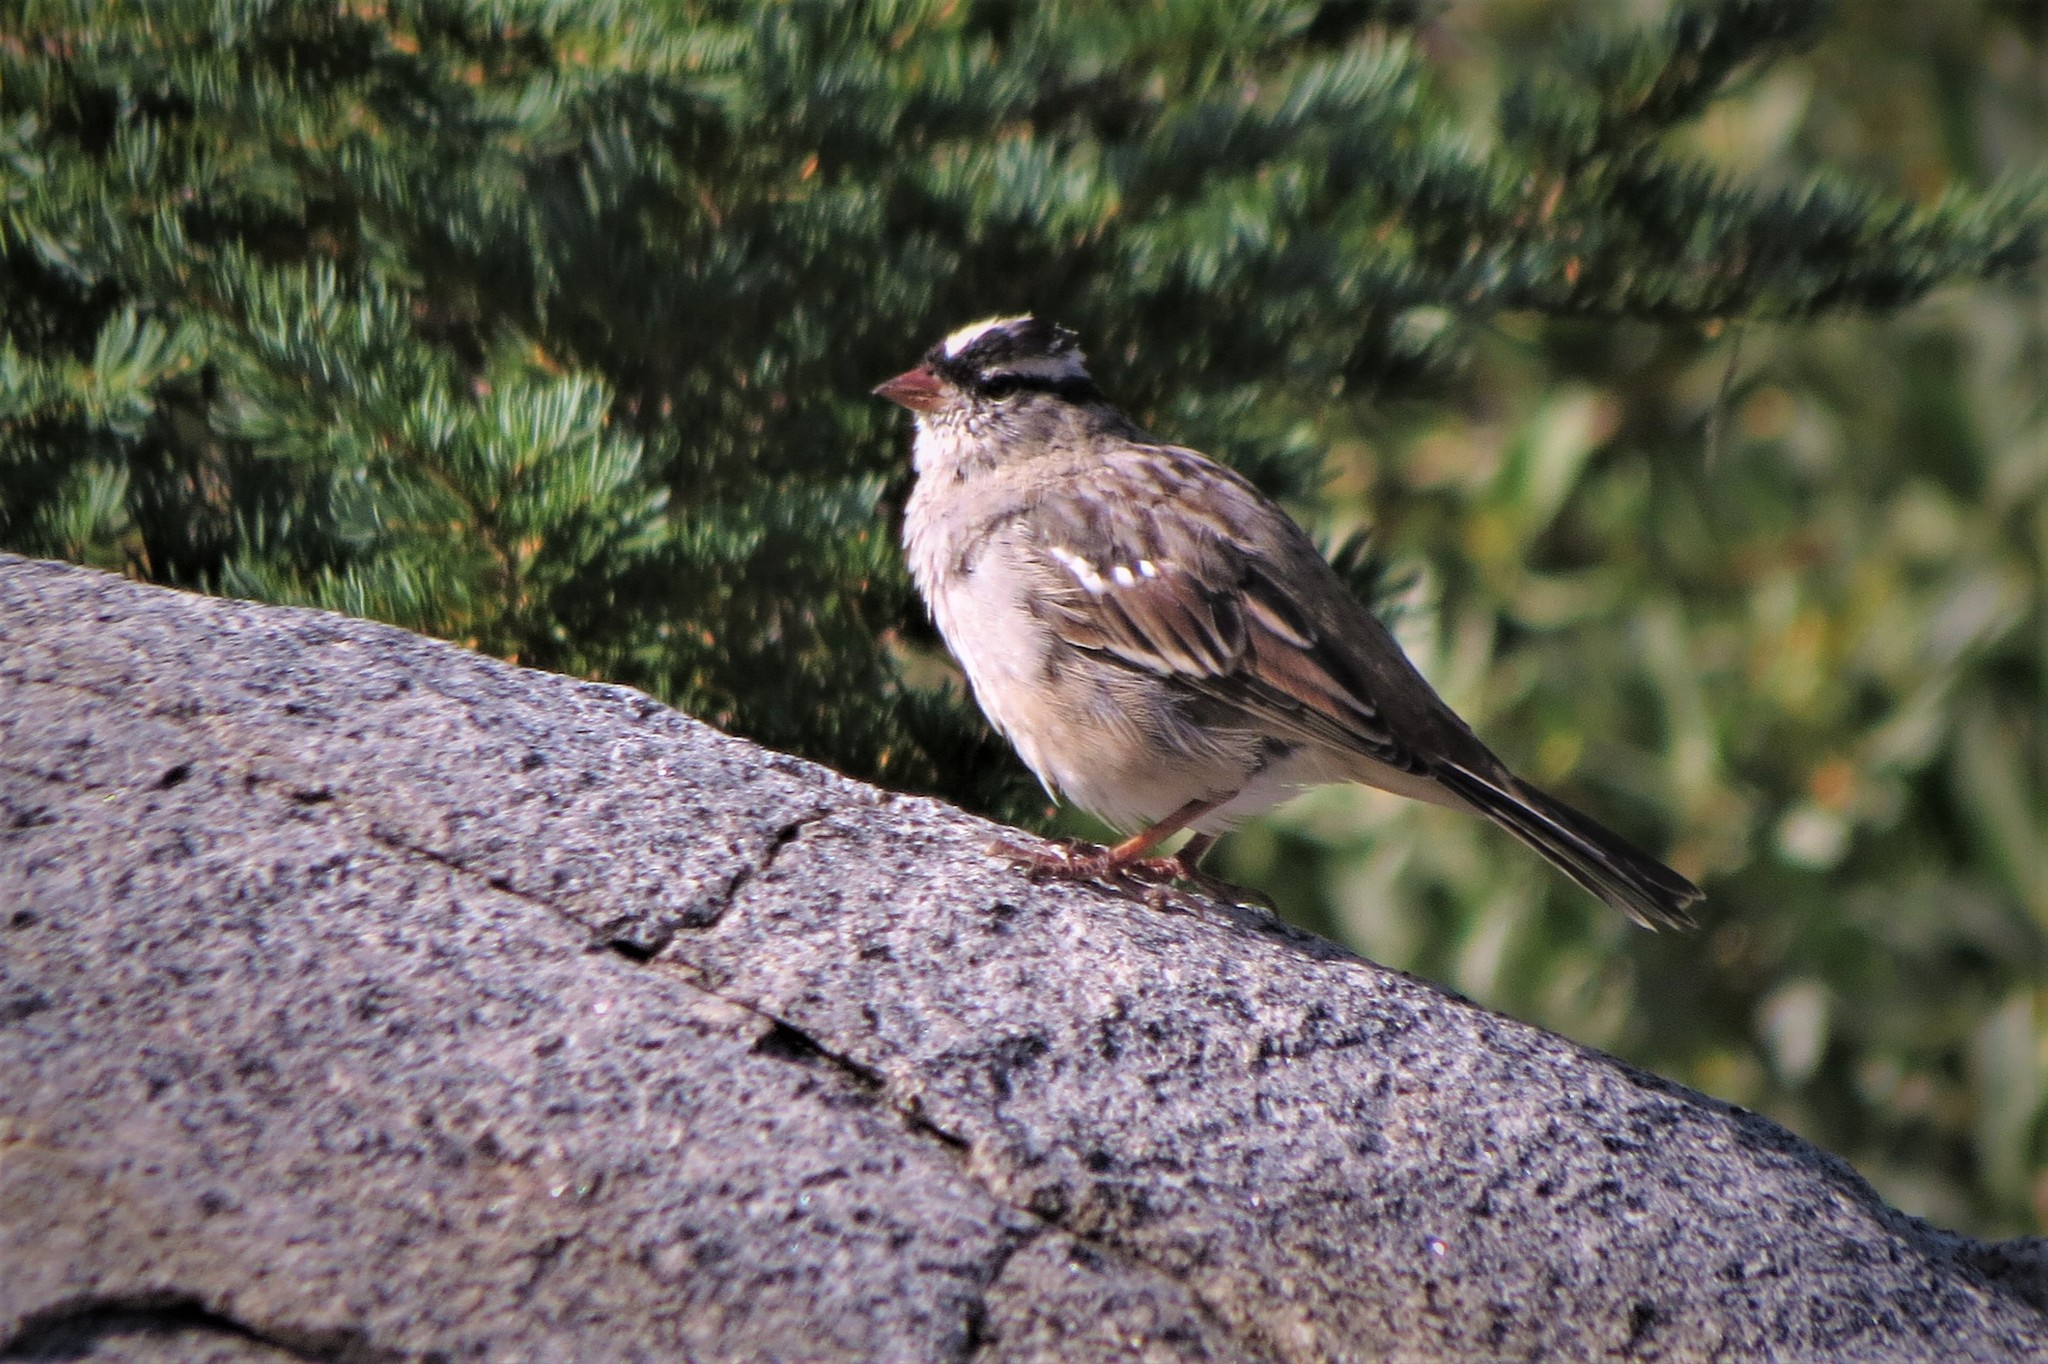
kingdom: Animalia
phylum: Chordata
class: Aves
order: Passeriformes
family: Passerellidae
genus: Zonotrichia
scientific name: Zonotrichia leucophrys
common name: White-crowned sparrow
